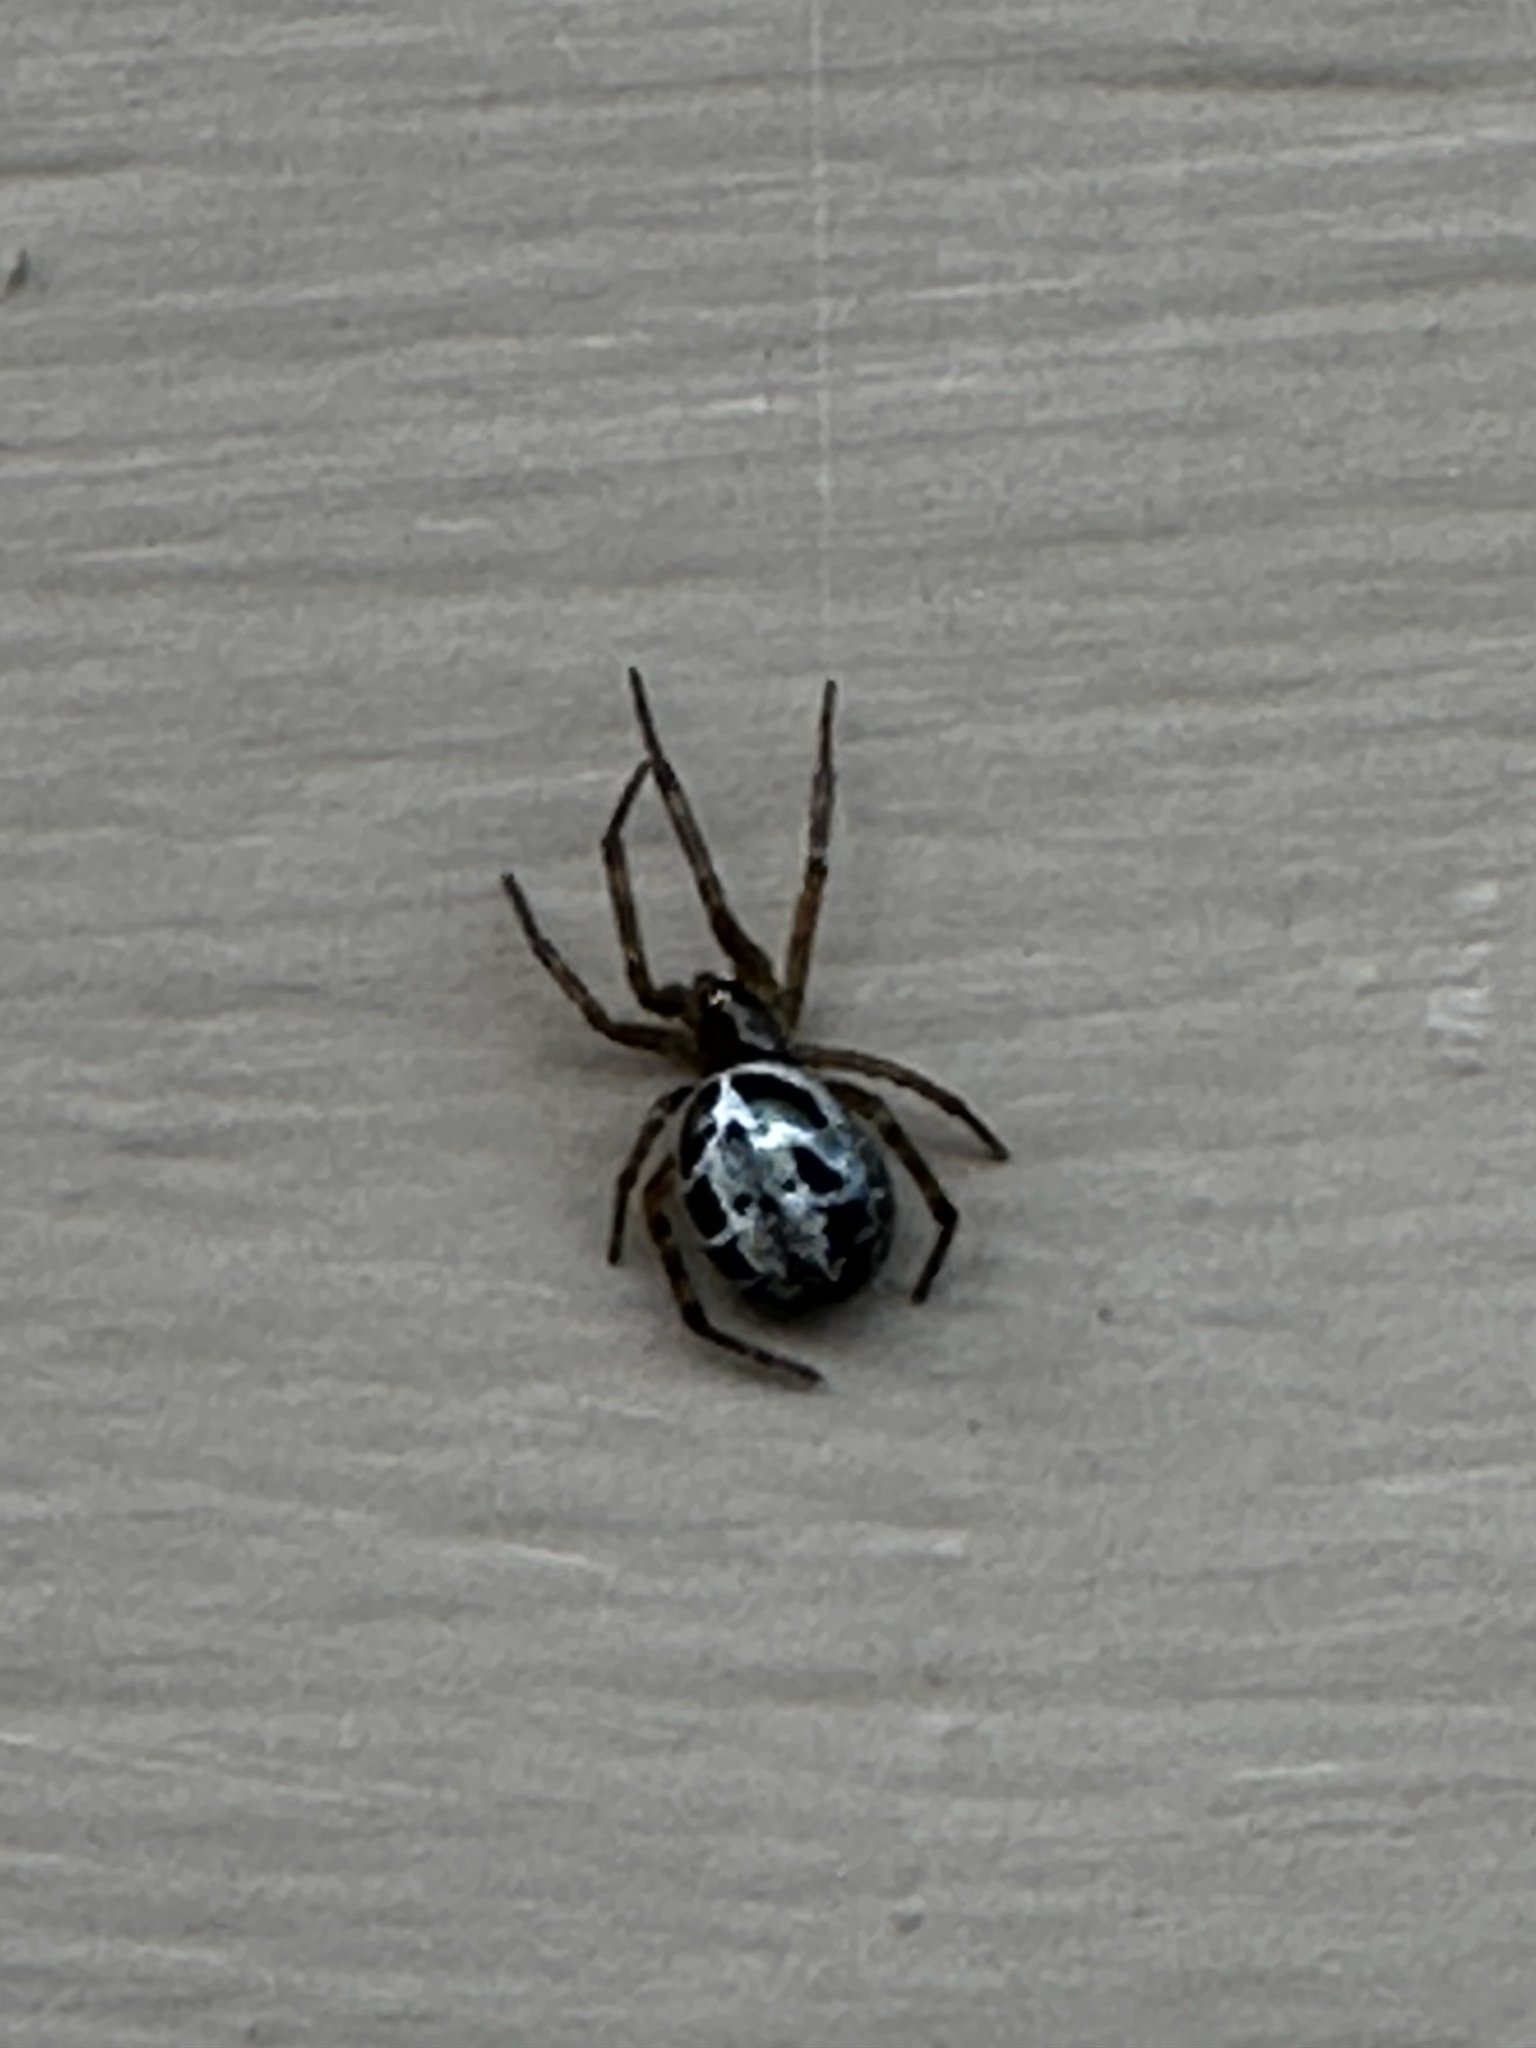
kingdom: Animalia
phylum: Arthropoda
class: Arachnida
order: Araneae
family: Theridiidae
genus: Steatoda
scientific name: Steatoda nobilis
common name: Cobweb weaver
